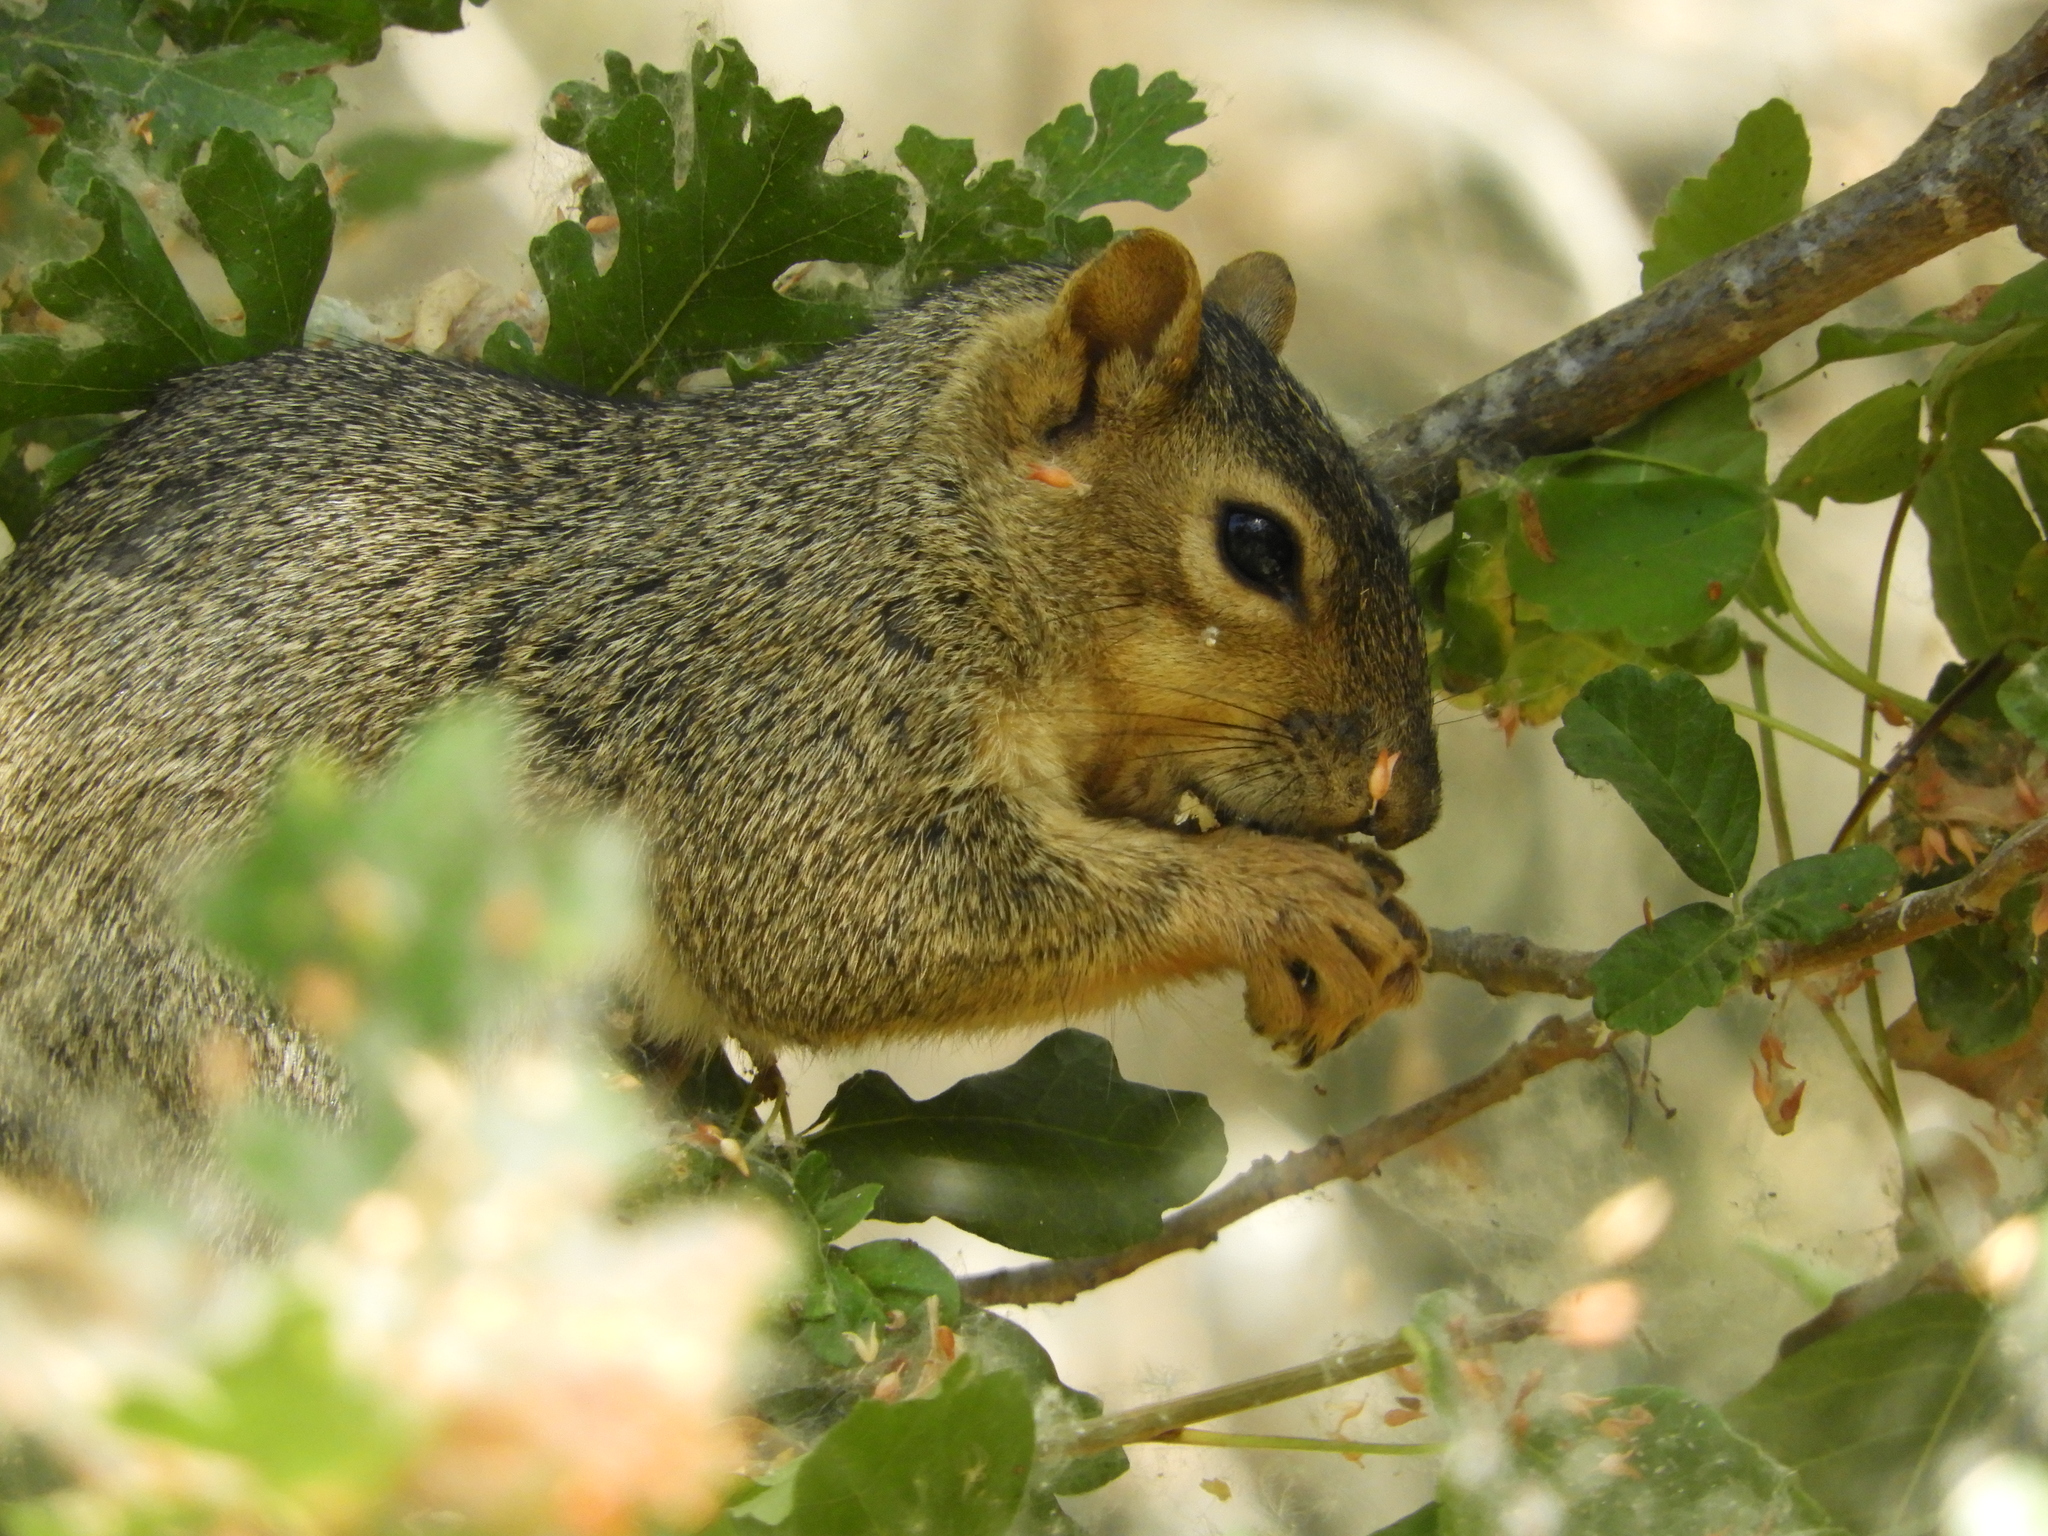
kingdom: Animalia
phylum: Chordata
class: Mammalia
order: Rodentia
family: Sciuridae
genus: Sciurus
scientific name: Sciurus niger
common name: Fox squirrel
